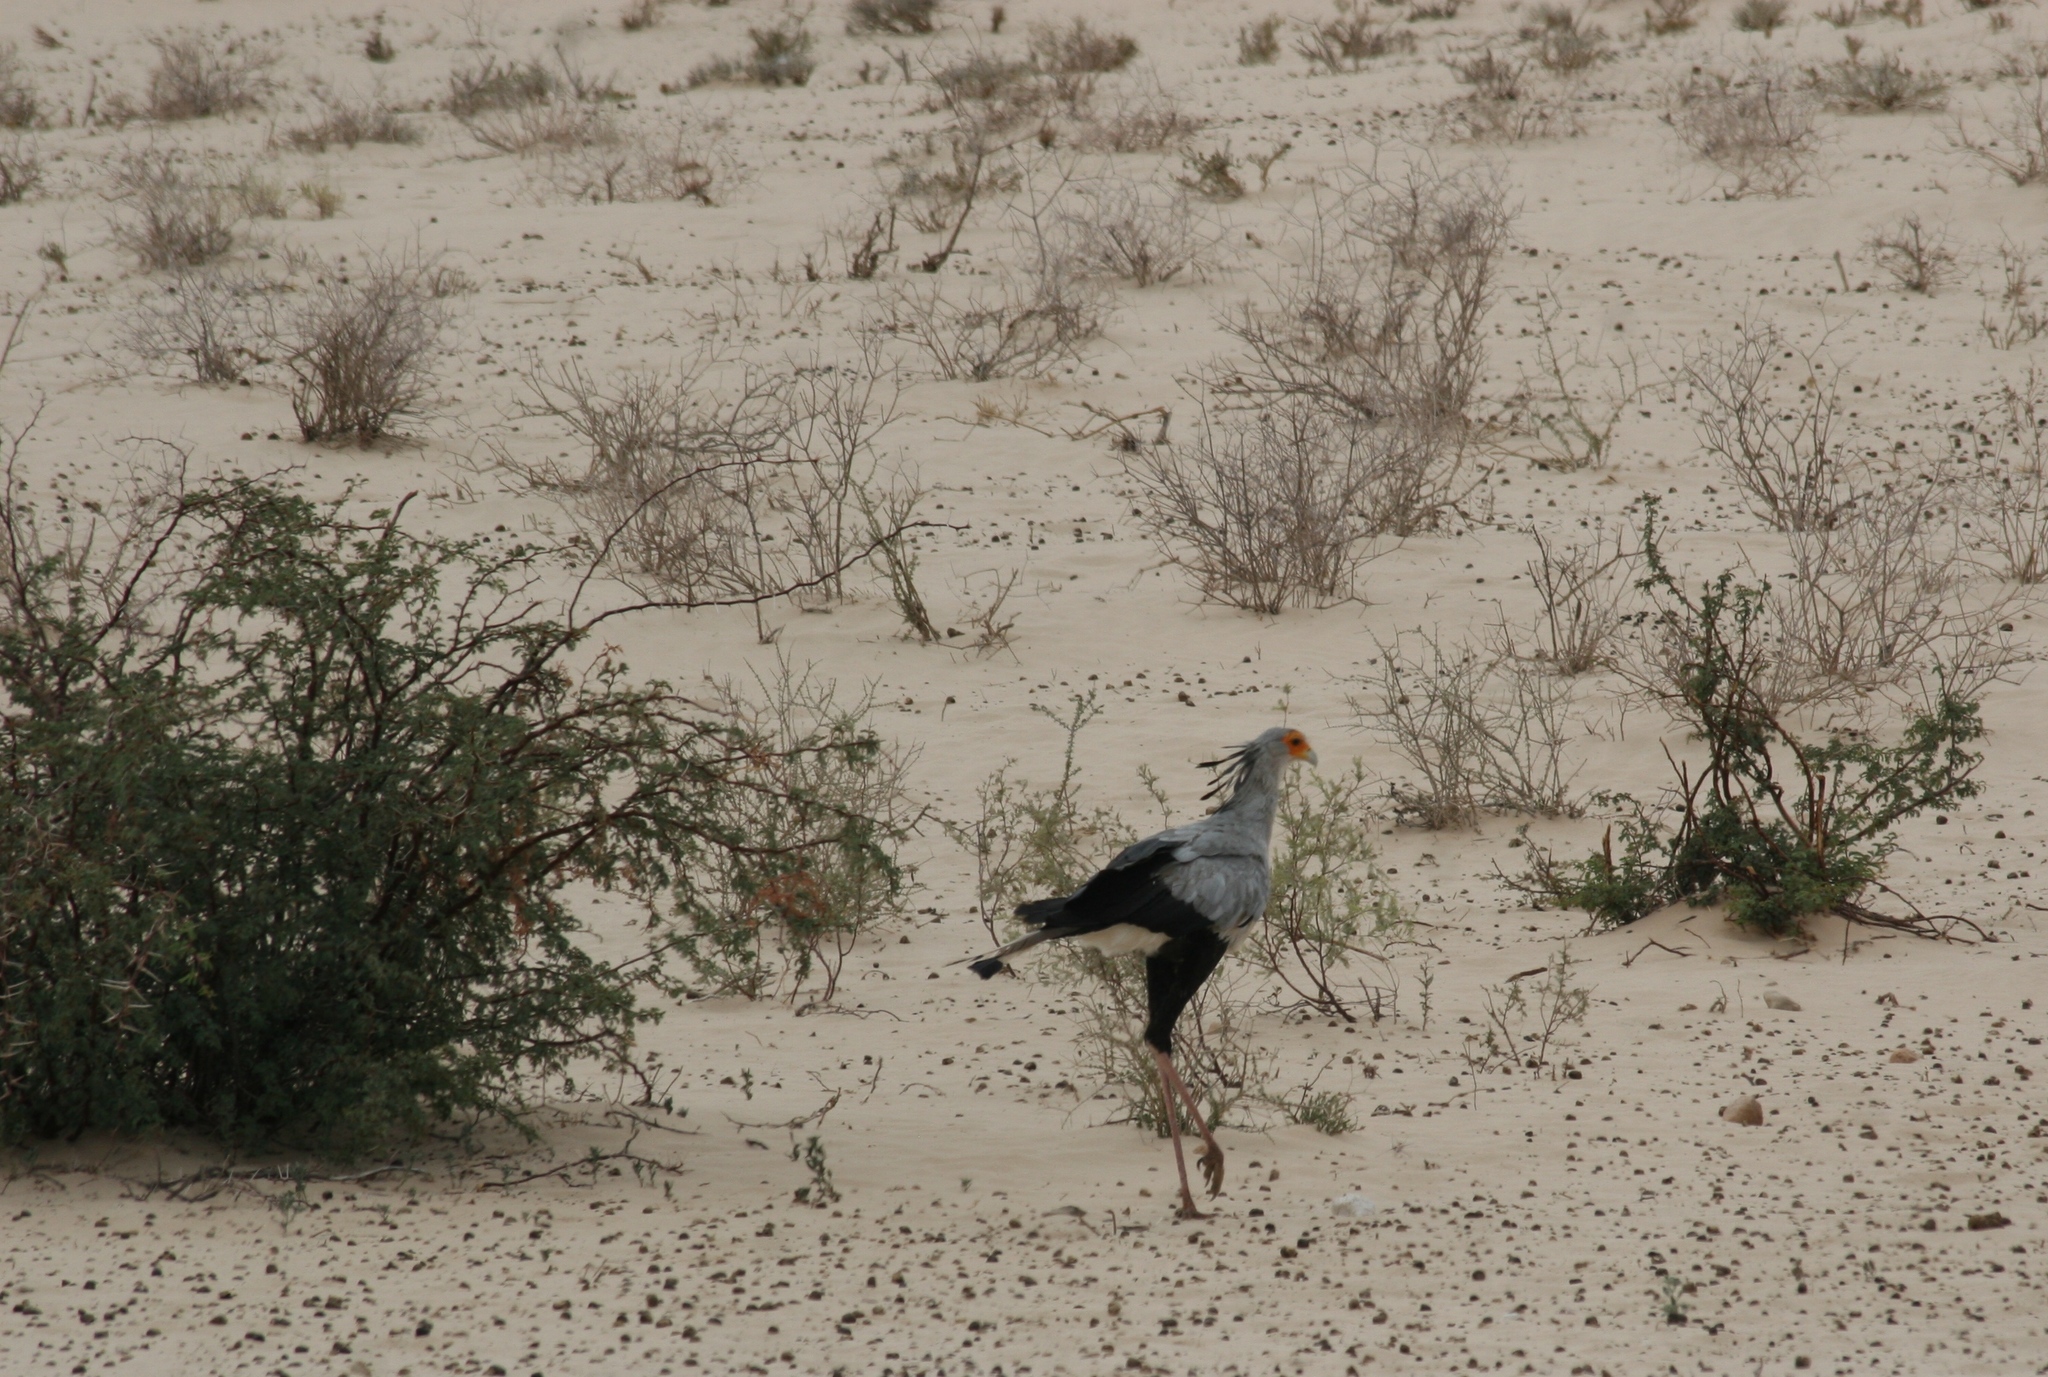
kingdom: Animalia
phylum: Chordata
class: Aves
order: Accipitriformes
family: Sagittariidae
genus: Sagittarius
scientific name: Sagittarius serpentarius
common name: Secretarybird
